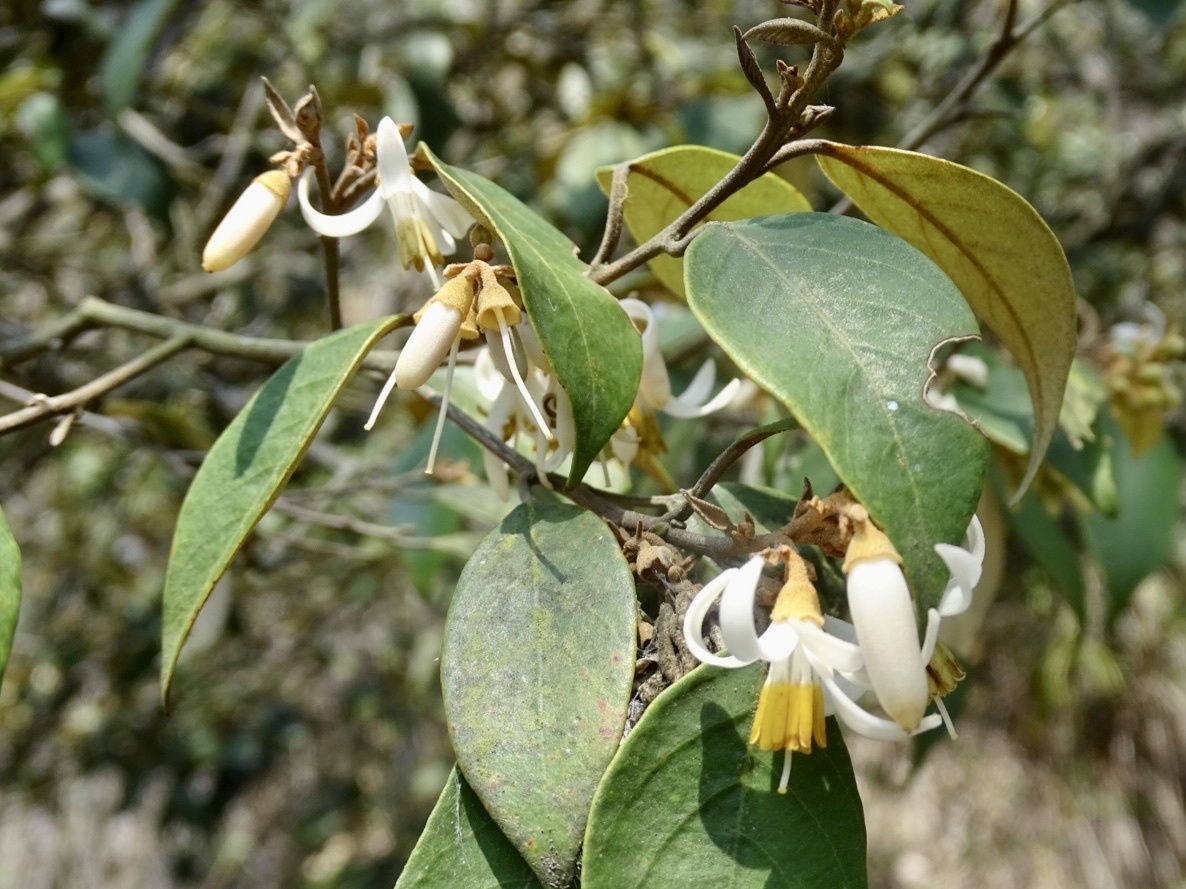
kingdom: Plantae
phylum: Tracheophyta
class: Magnoliopsida
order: Ericales
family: Styracaceae
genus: Styrax
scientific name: Styrax suberifolius
